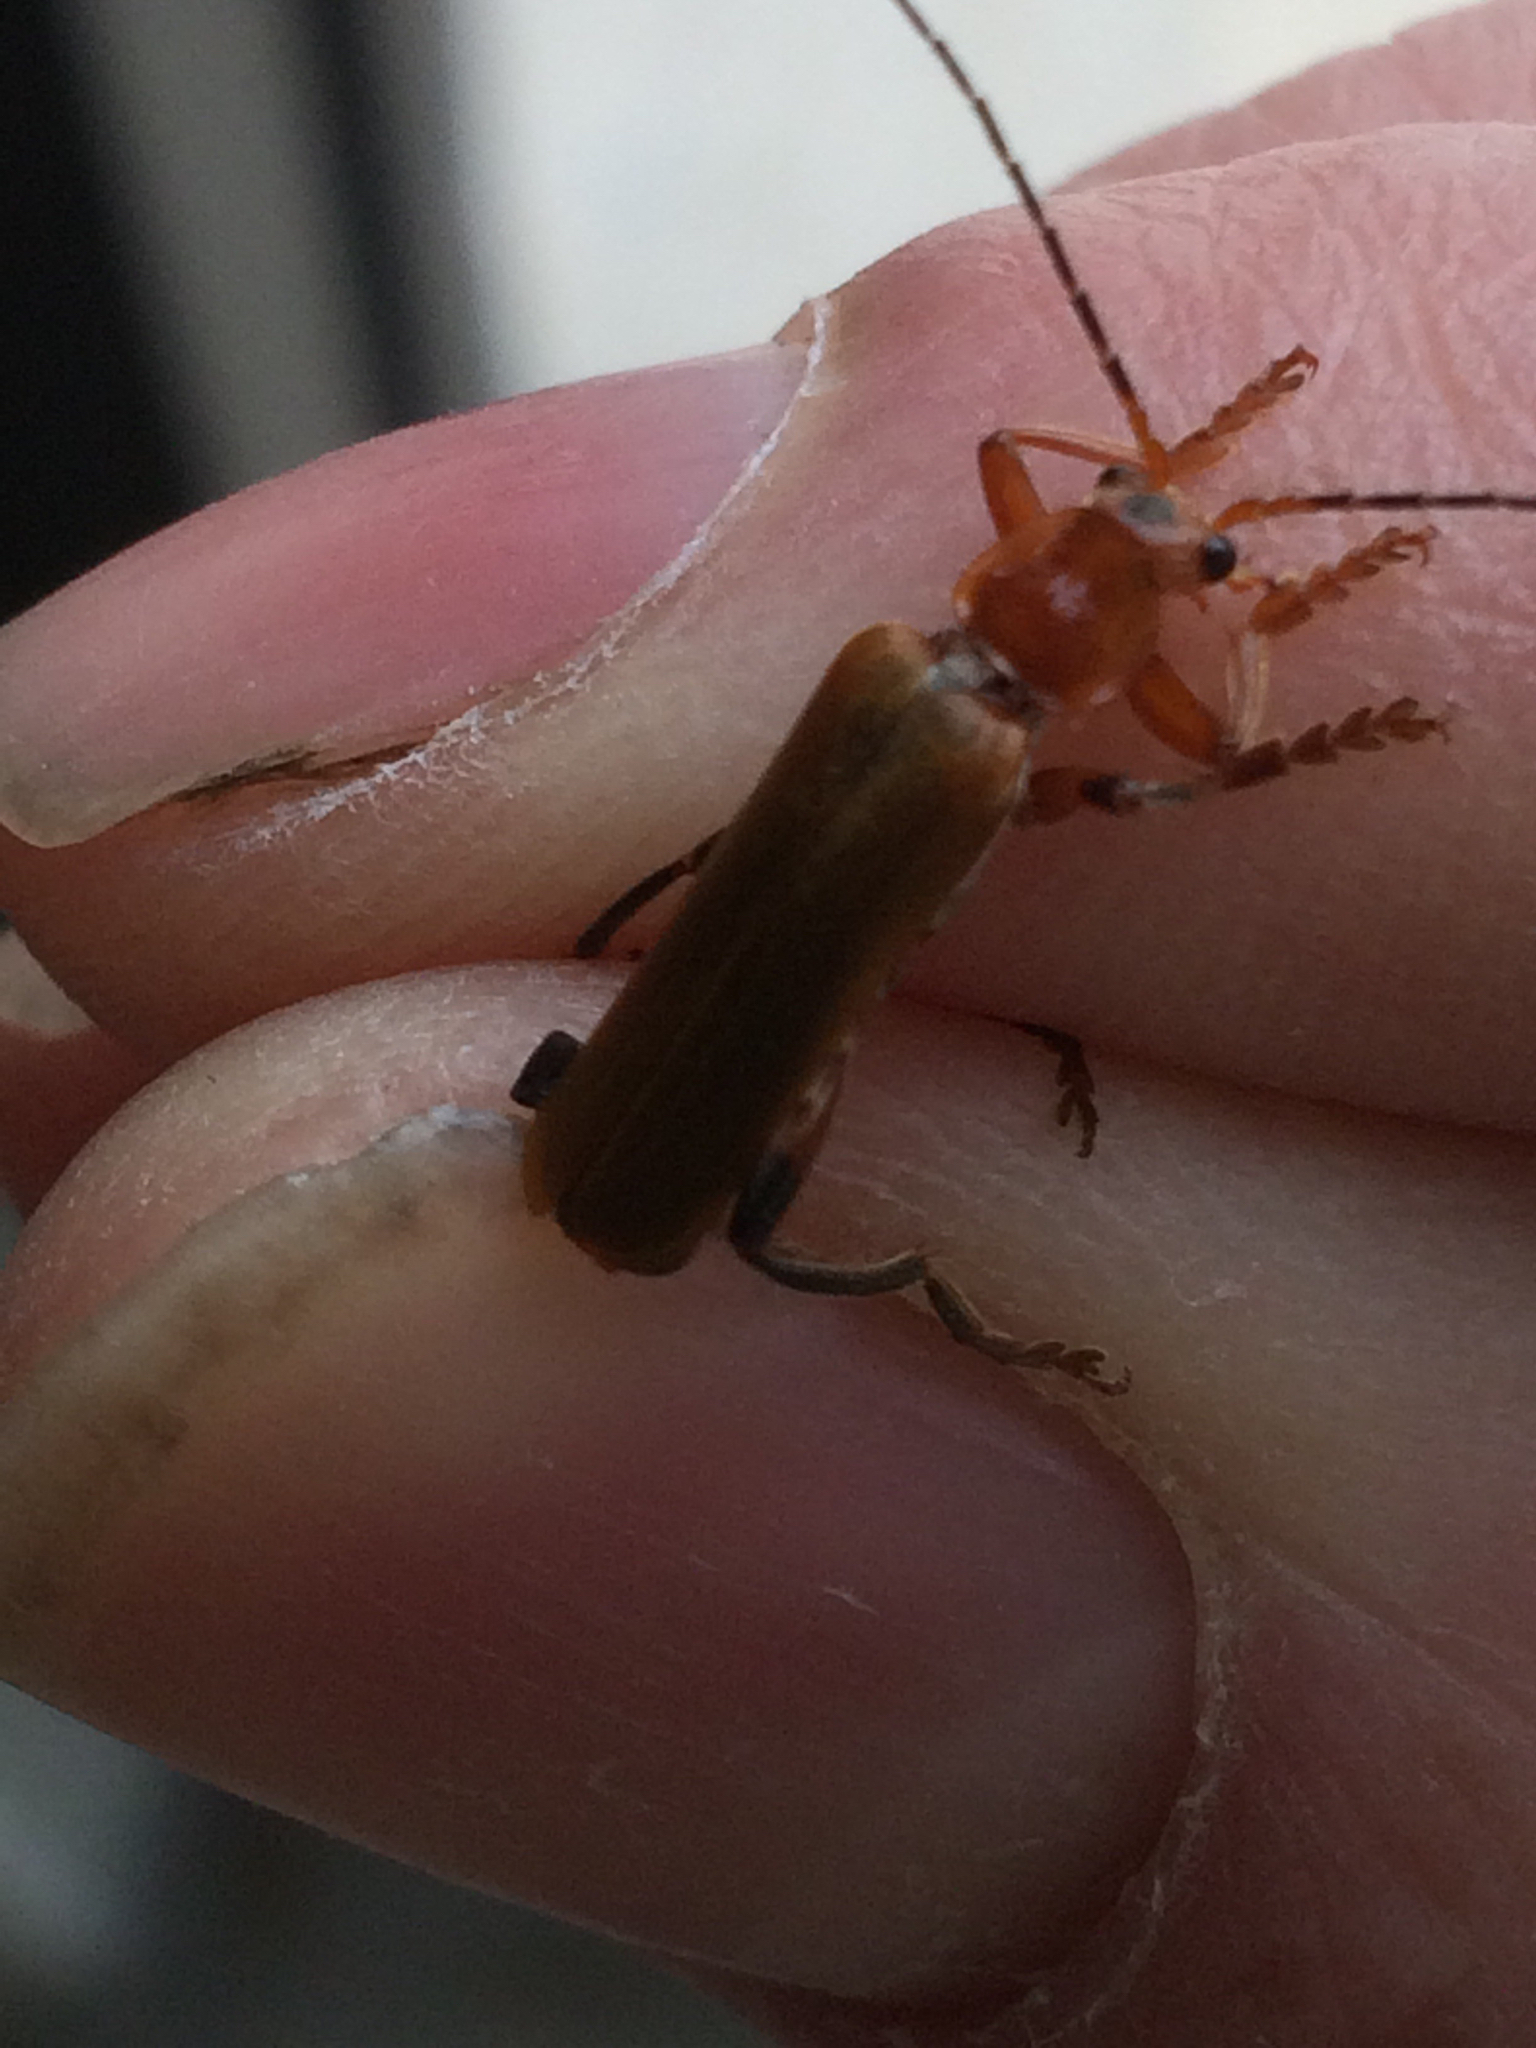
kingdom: Animalia
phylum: Arthropoda
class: Insecta
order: Coleoptera
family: Cantharidae
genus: Cantharis
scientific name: Cantharis livida
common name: Livid soldier beetle
